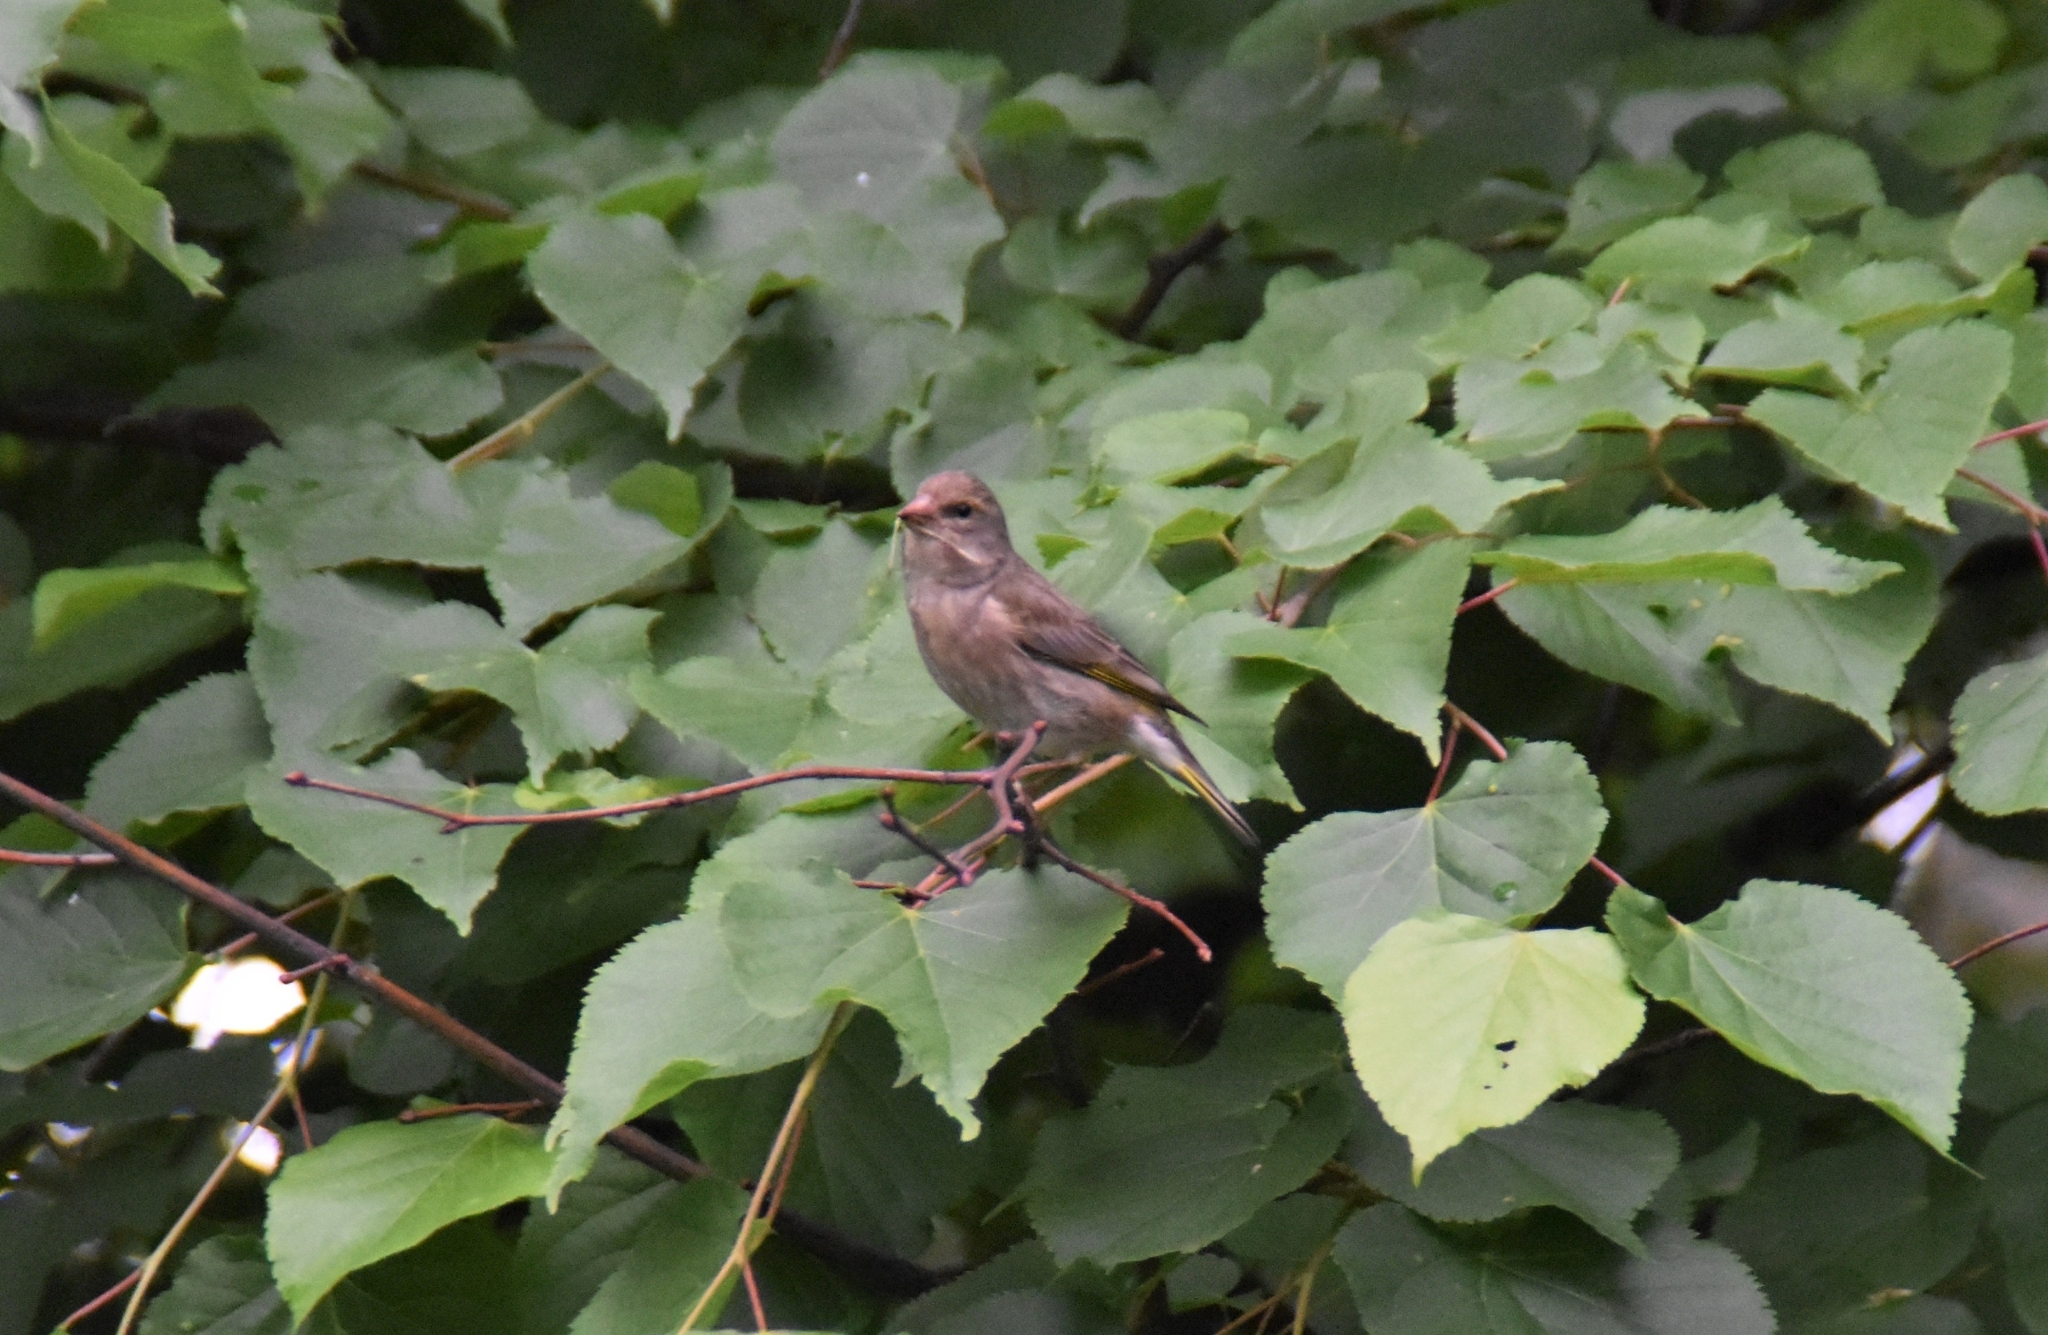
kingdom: Plantae
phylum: Tracheophyta
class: Liliopsida
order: Poales
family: Poaceae
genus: Chloris
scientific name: Chloris chloris
